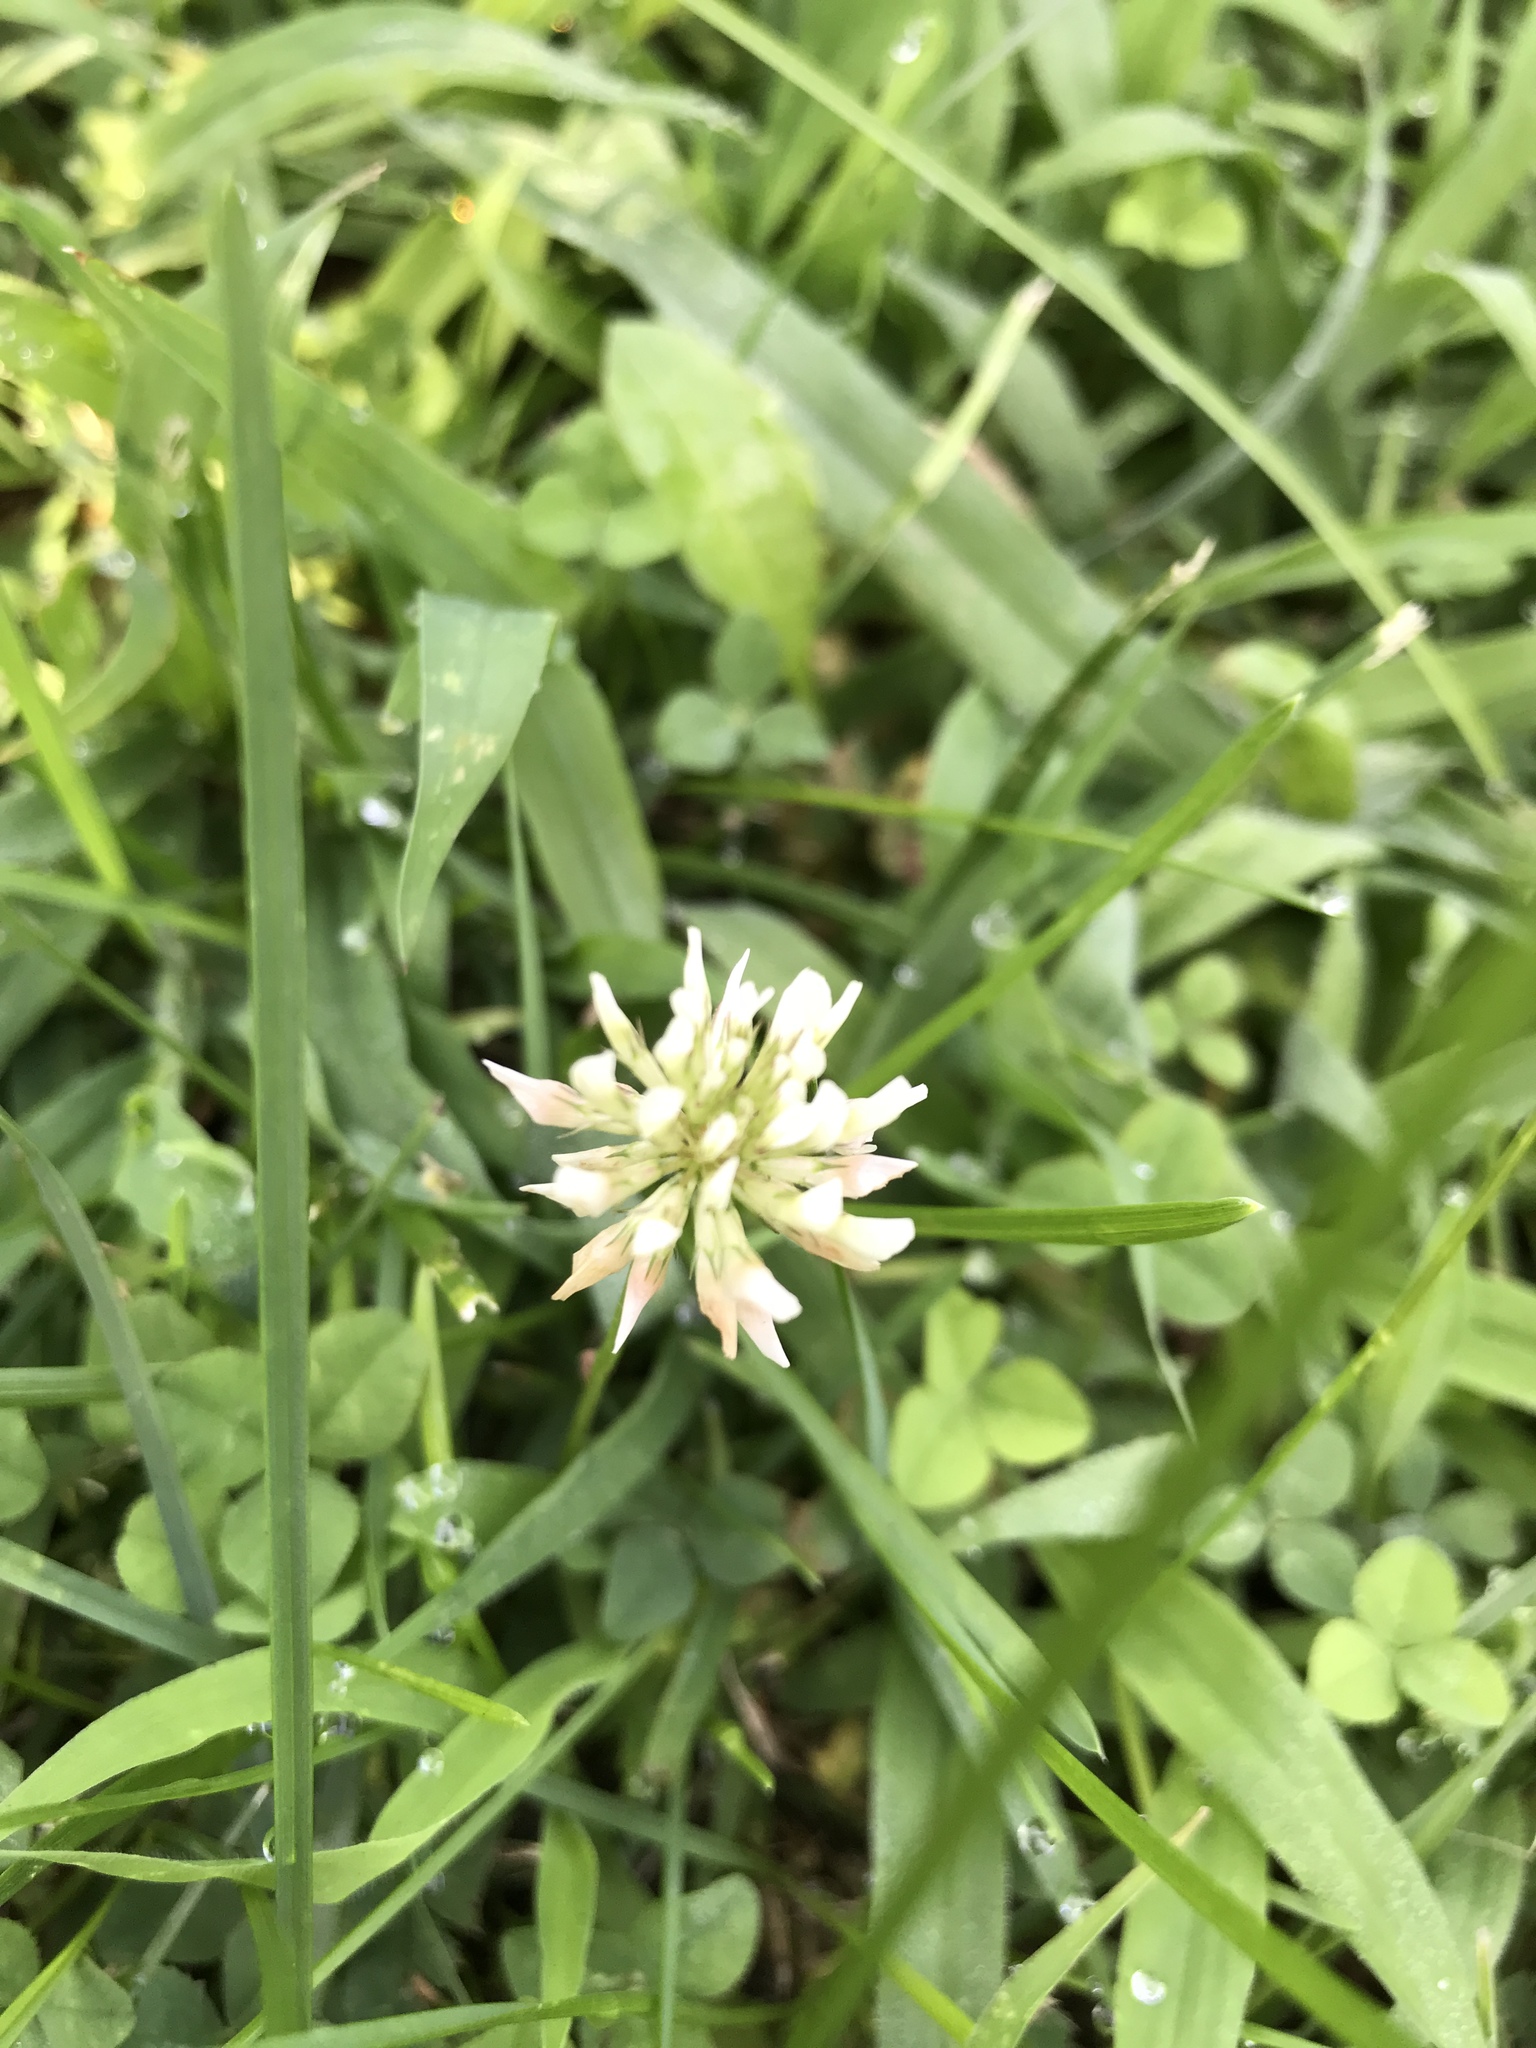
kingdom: Plantae
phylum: Tracheophyta
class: Magnoliopsida
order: Fabales
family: Fabaceae
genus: Trifolium
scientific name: Trifolium repens
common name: White clover
